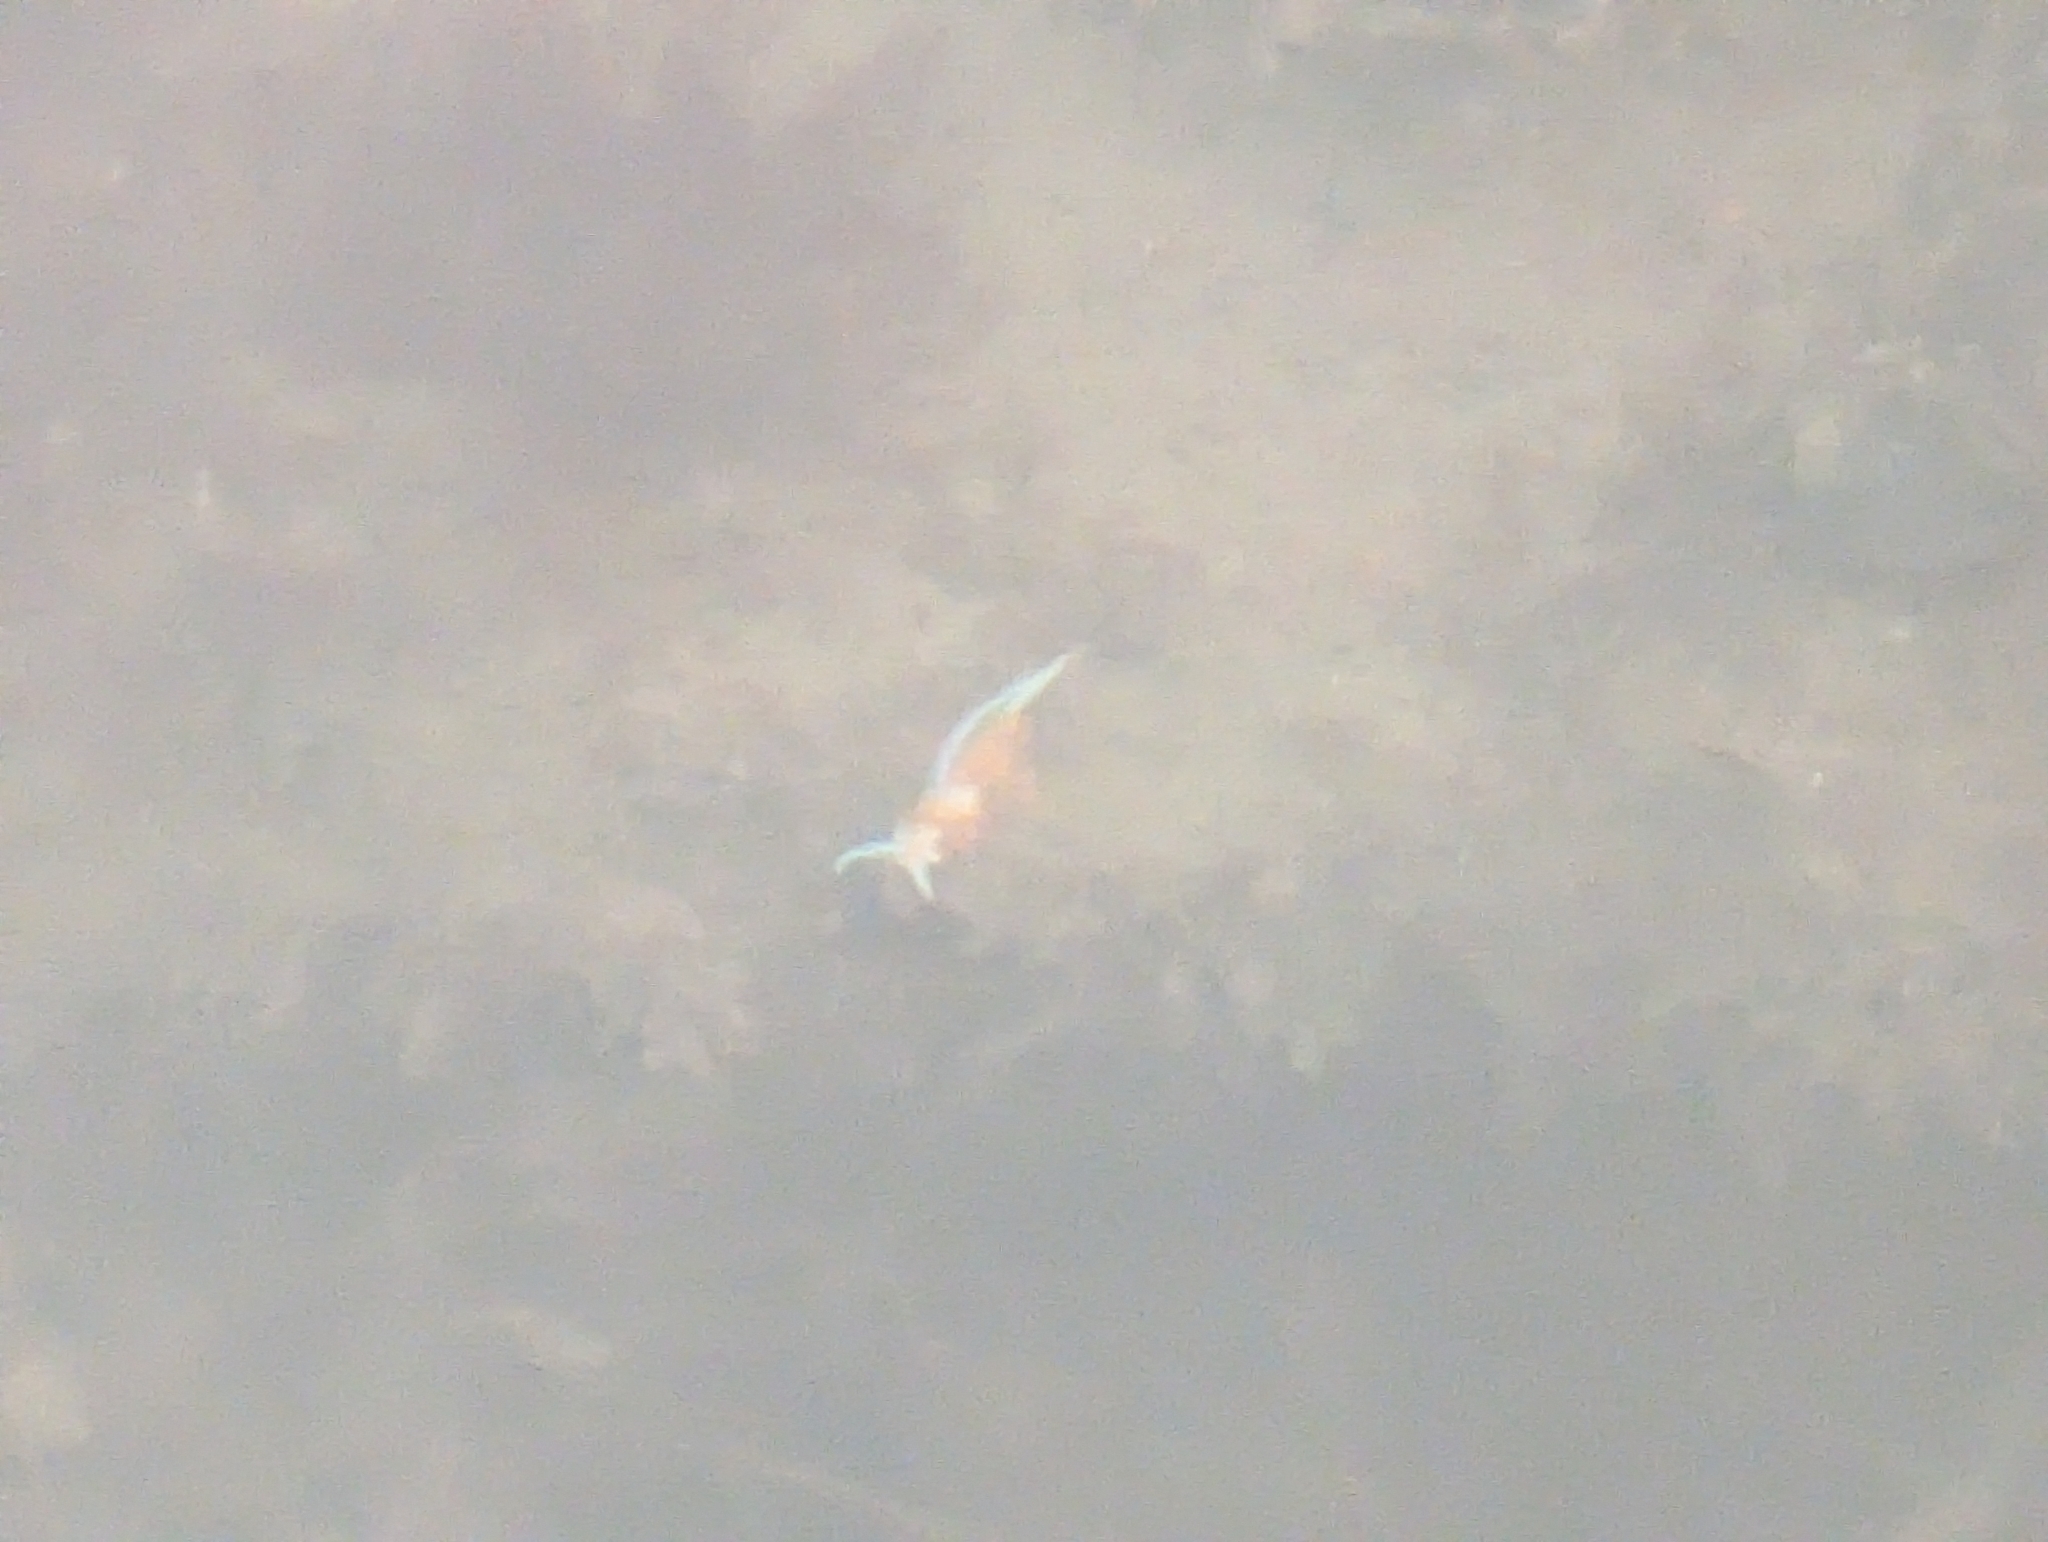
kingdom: Animalia
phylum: Mollusca
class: Gastropoda
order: Nudibranchia
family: Myrrhinidae
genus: Hermissenda
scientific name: Hermissenda opalescens
